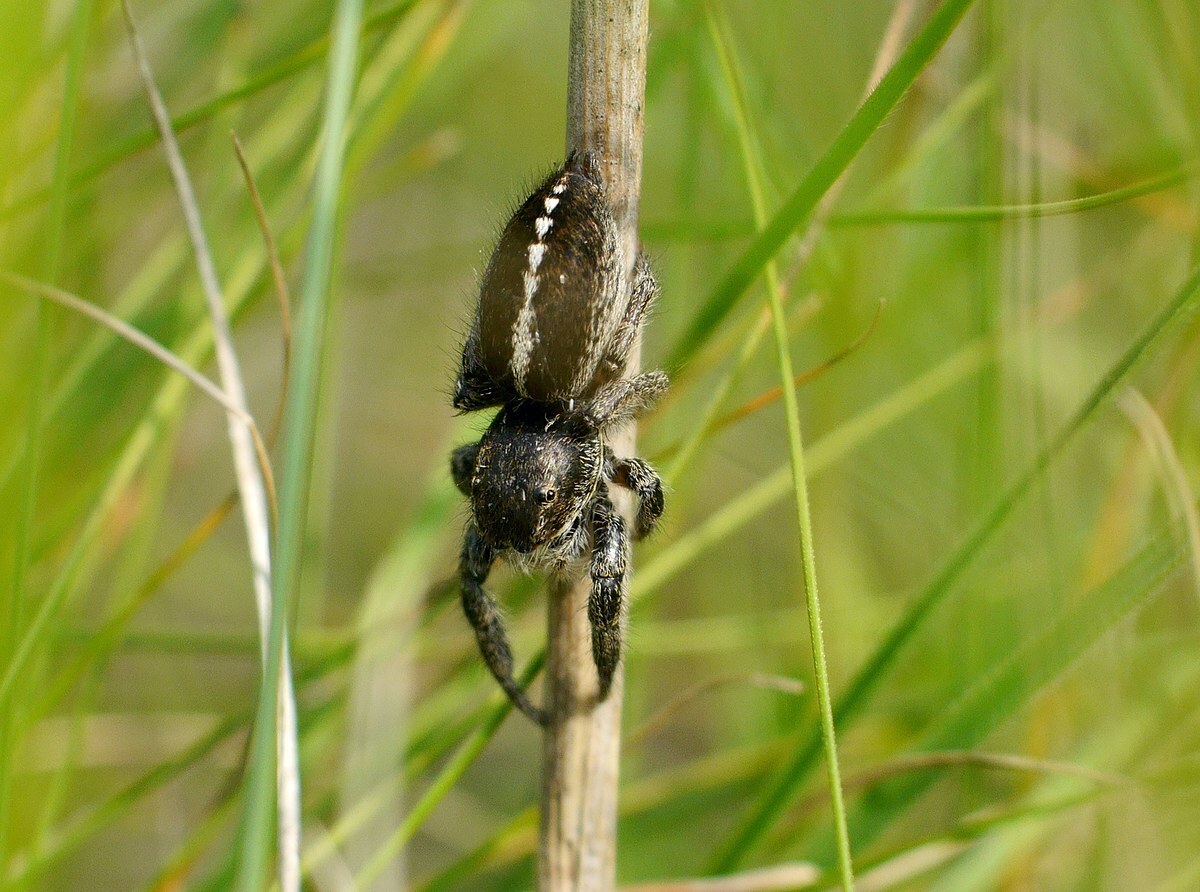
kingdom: Animalia
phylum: Arthropoda
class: Arachnida
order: Araneae
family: Salticidae
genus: Pellenes
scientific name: Pellenes seriatus
